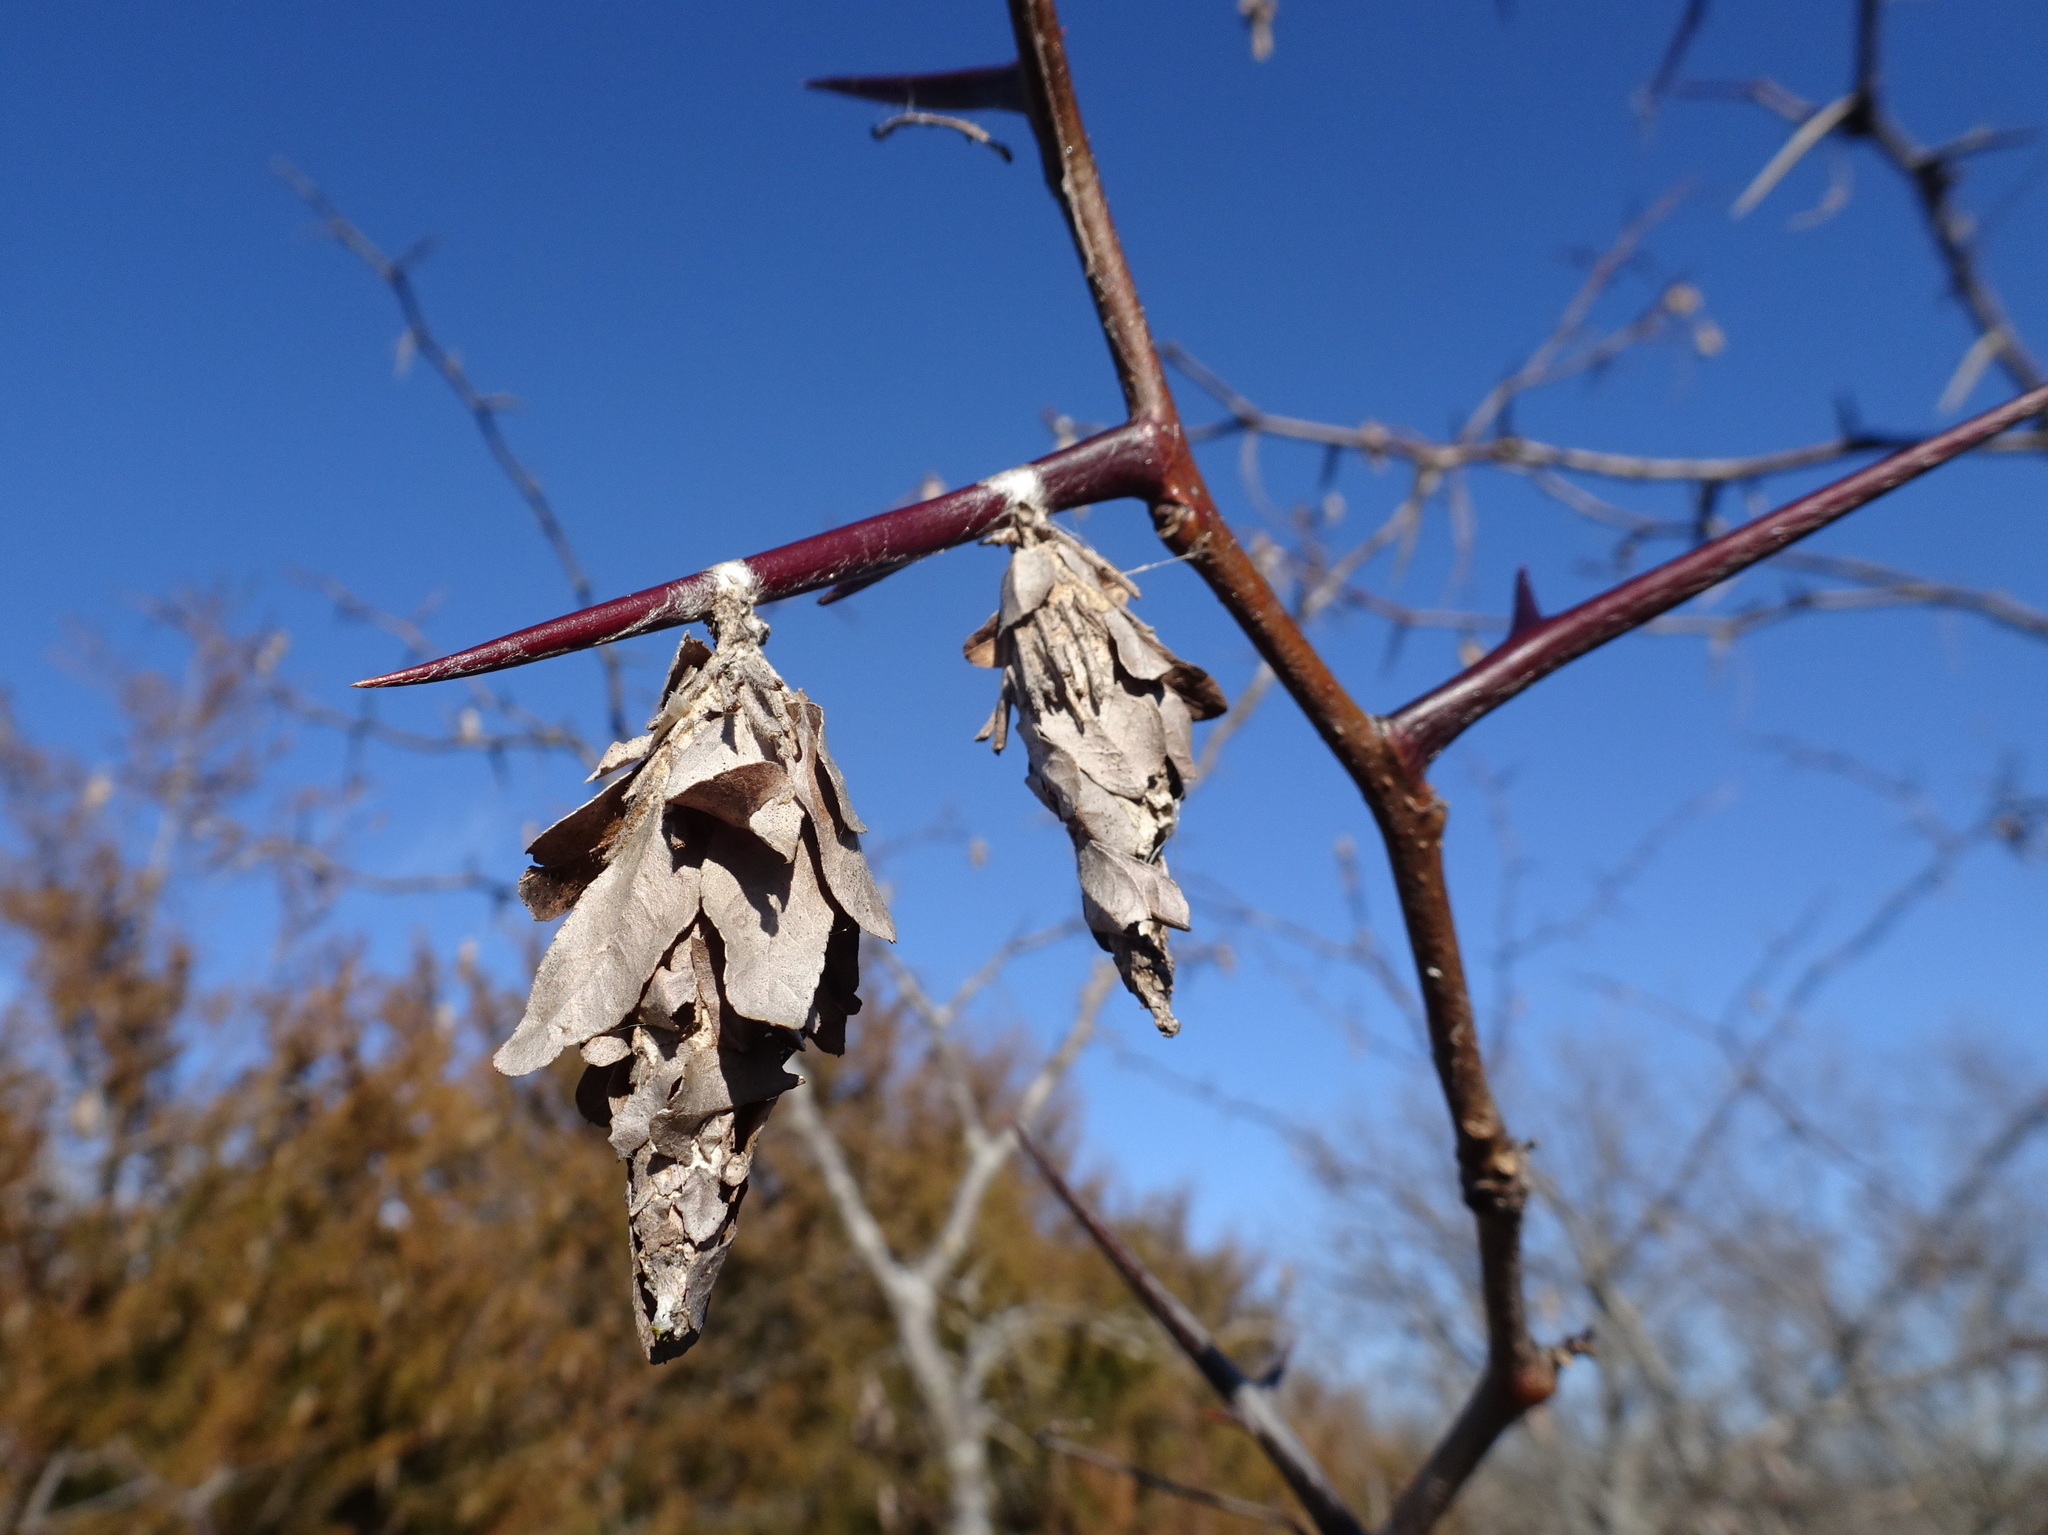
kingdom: Animalia
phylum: Arthropoda
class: Insecta
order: Lepidoptera
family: Psychidae
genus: Thyridopteryx
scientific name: Thyridopteryx ephemeraeformis
